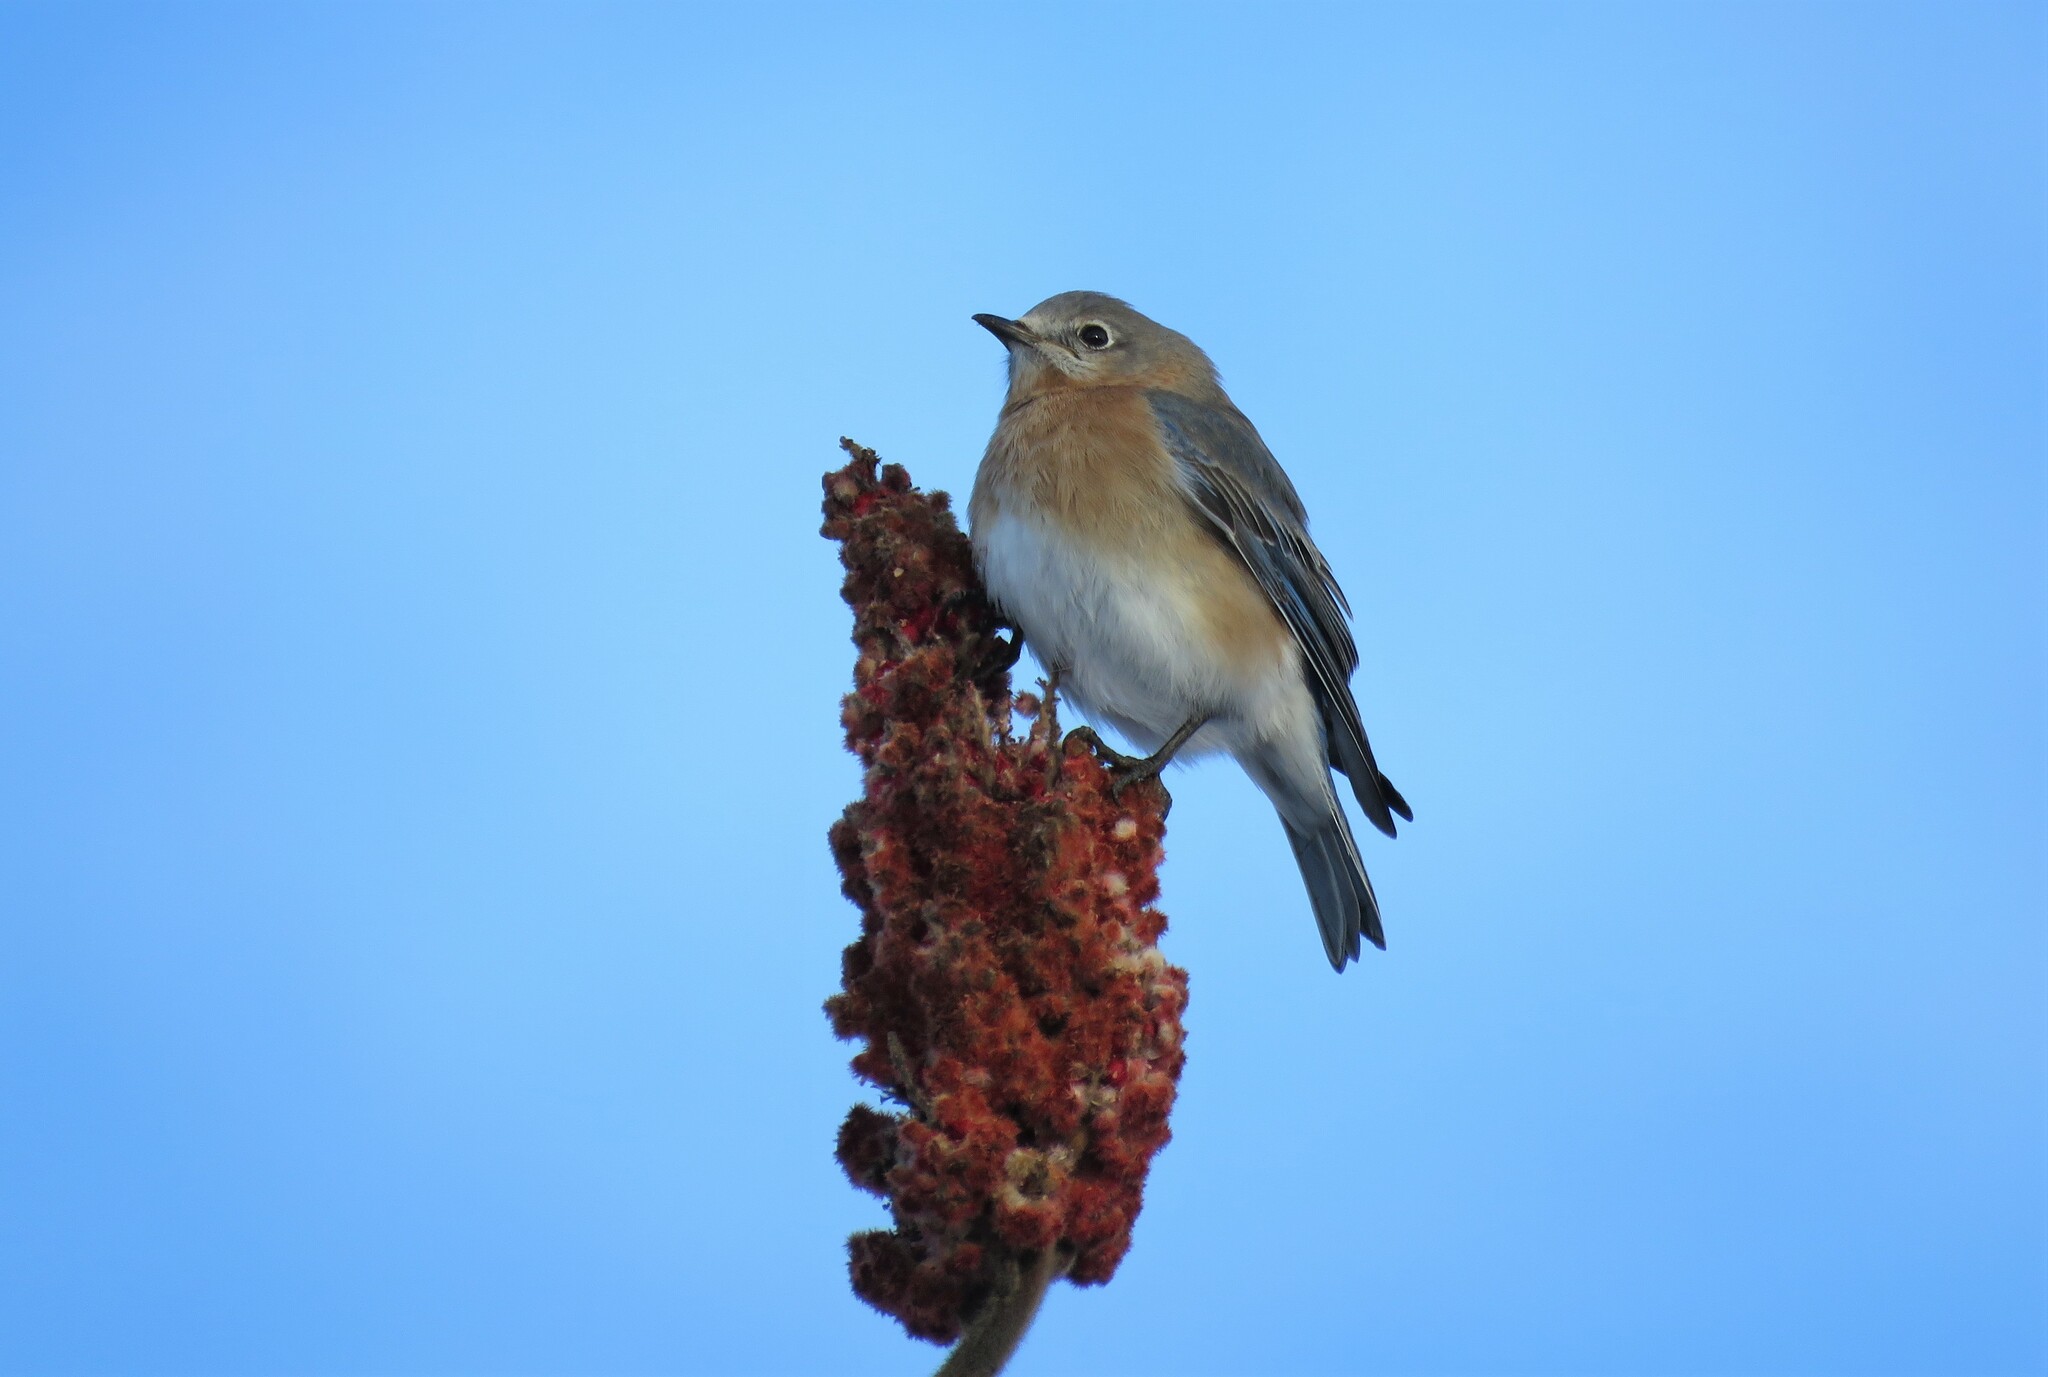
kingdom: Animalia
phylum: Chordata
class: Aves
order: Passeriformes
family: Turdidae
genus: Sialia
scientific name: Sialia sialis
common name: Eastern bluebird
